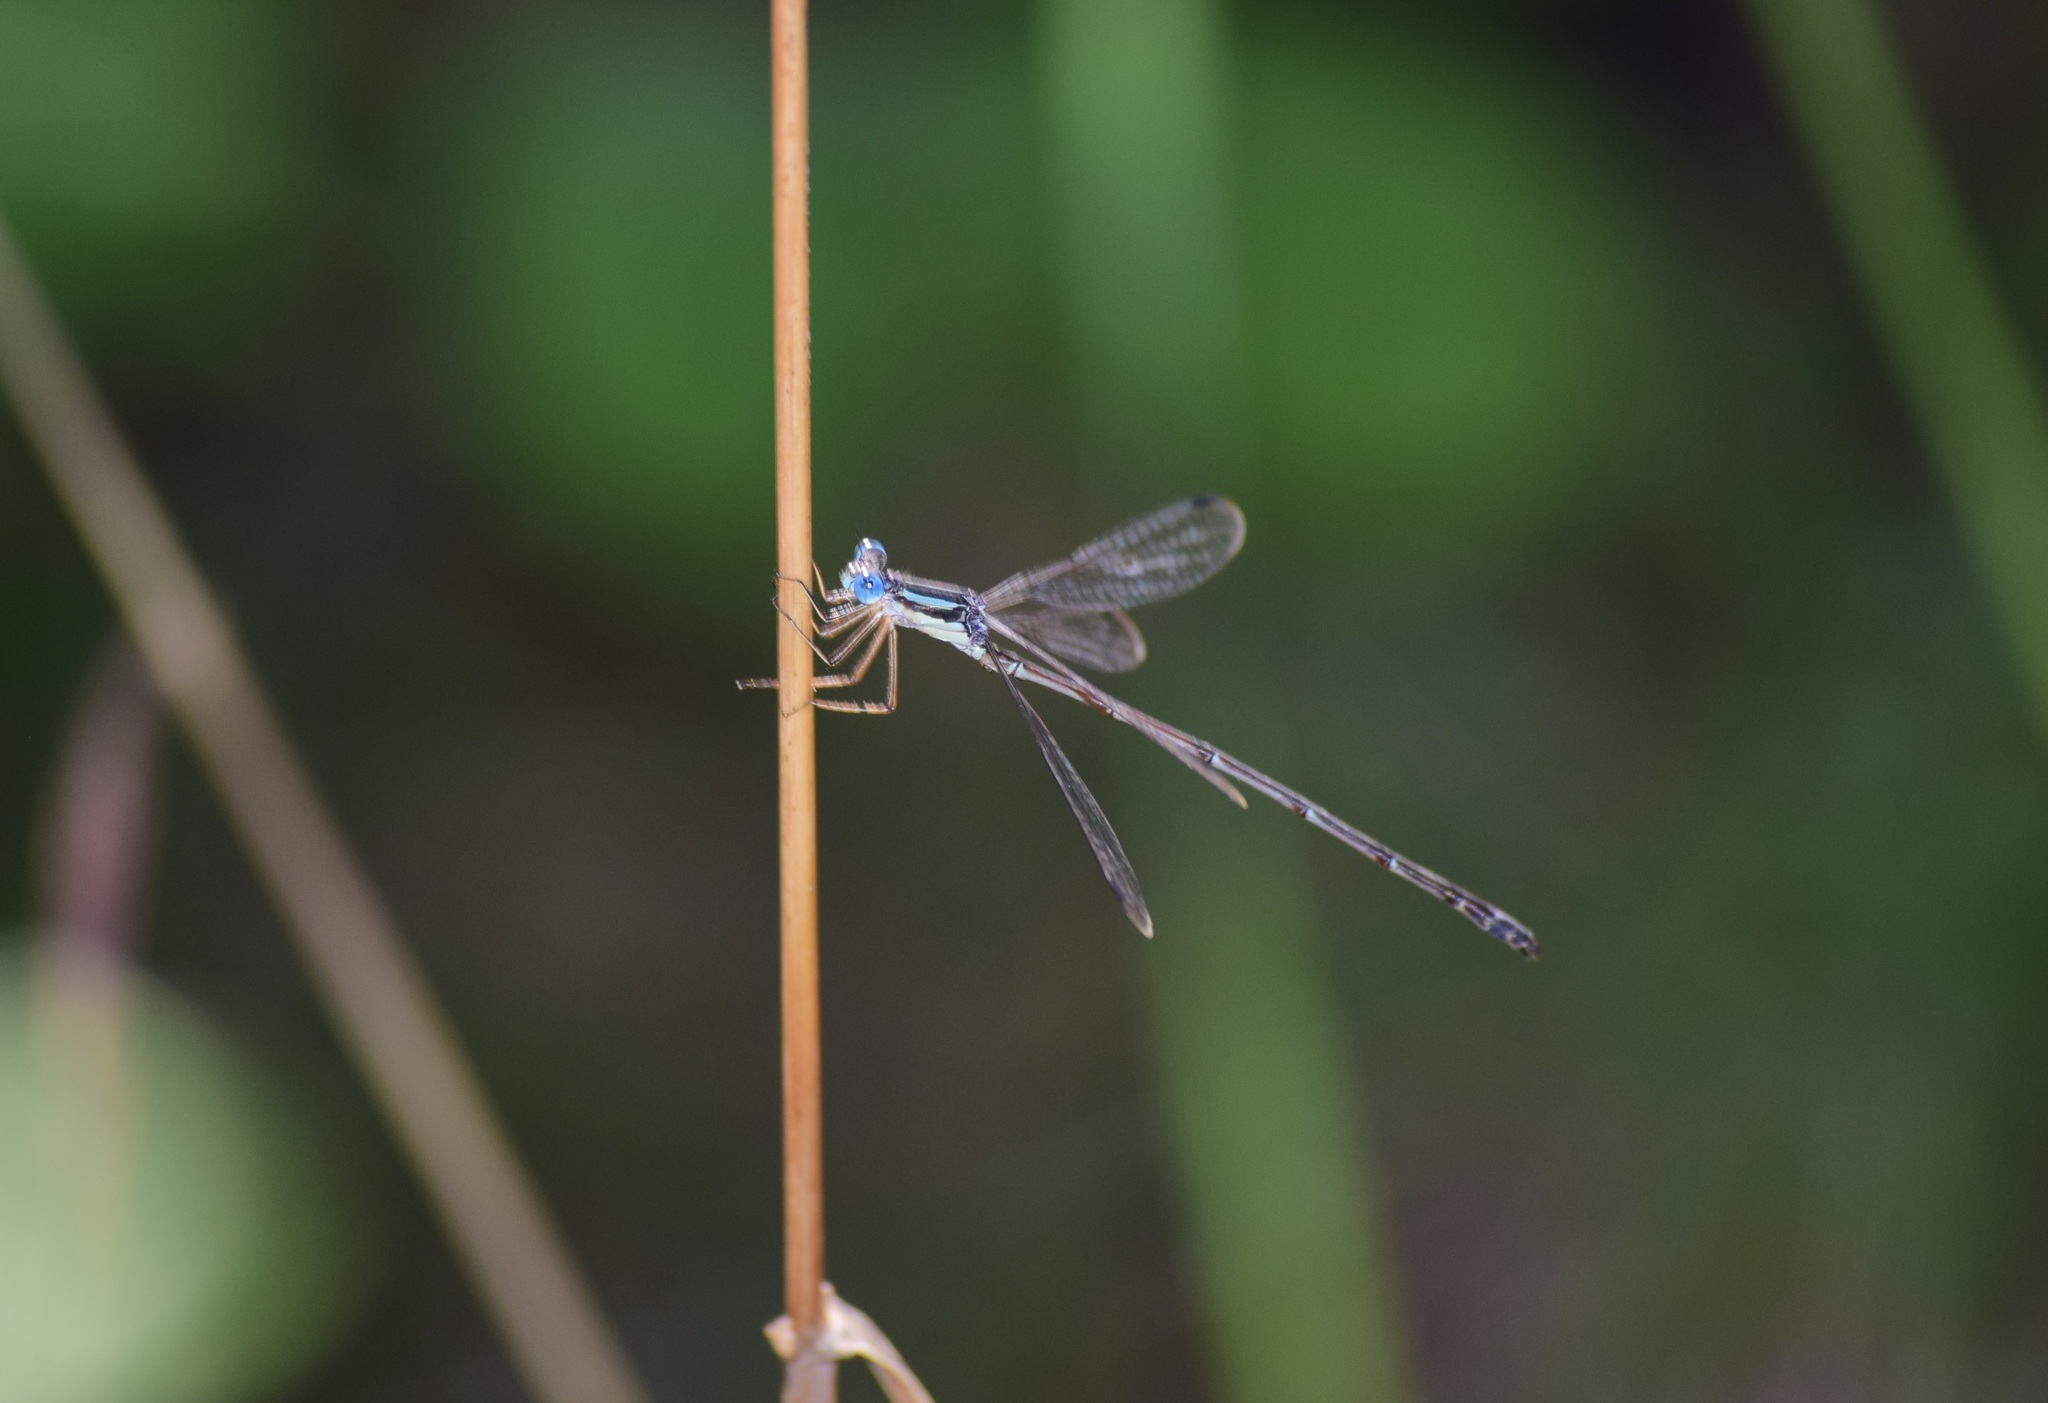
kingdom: Animalia
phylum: Arthropoda
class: Insecta
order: Odonata
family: Lestidae
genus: Lestes
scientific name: Lestes rectangularis
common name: Slender spreadwing
